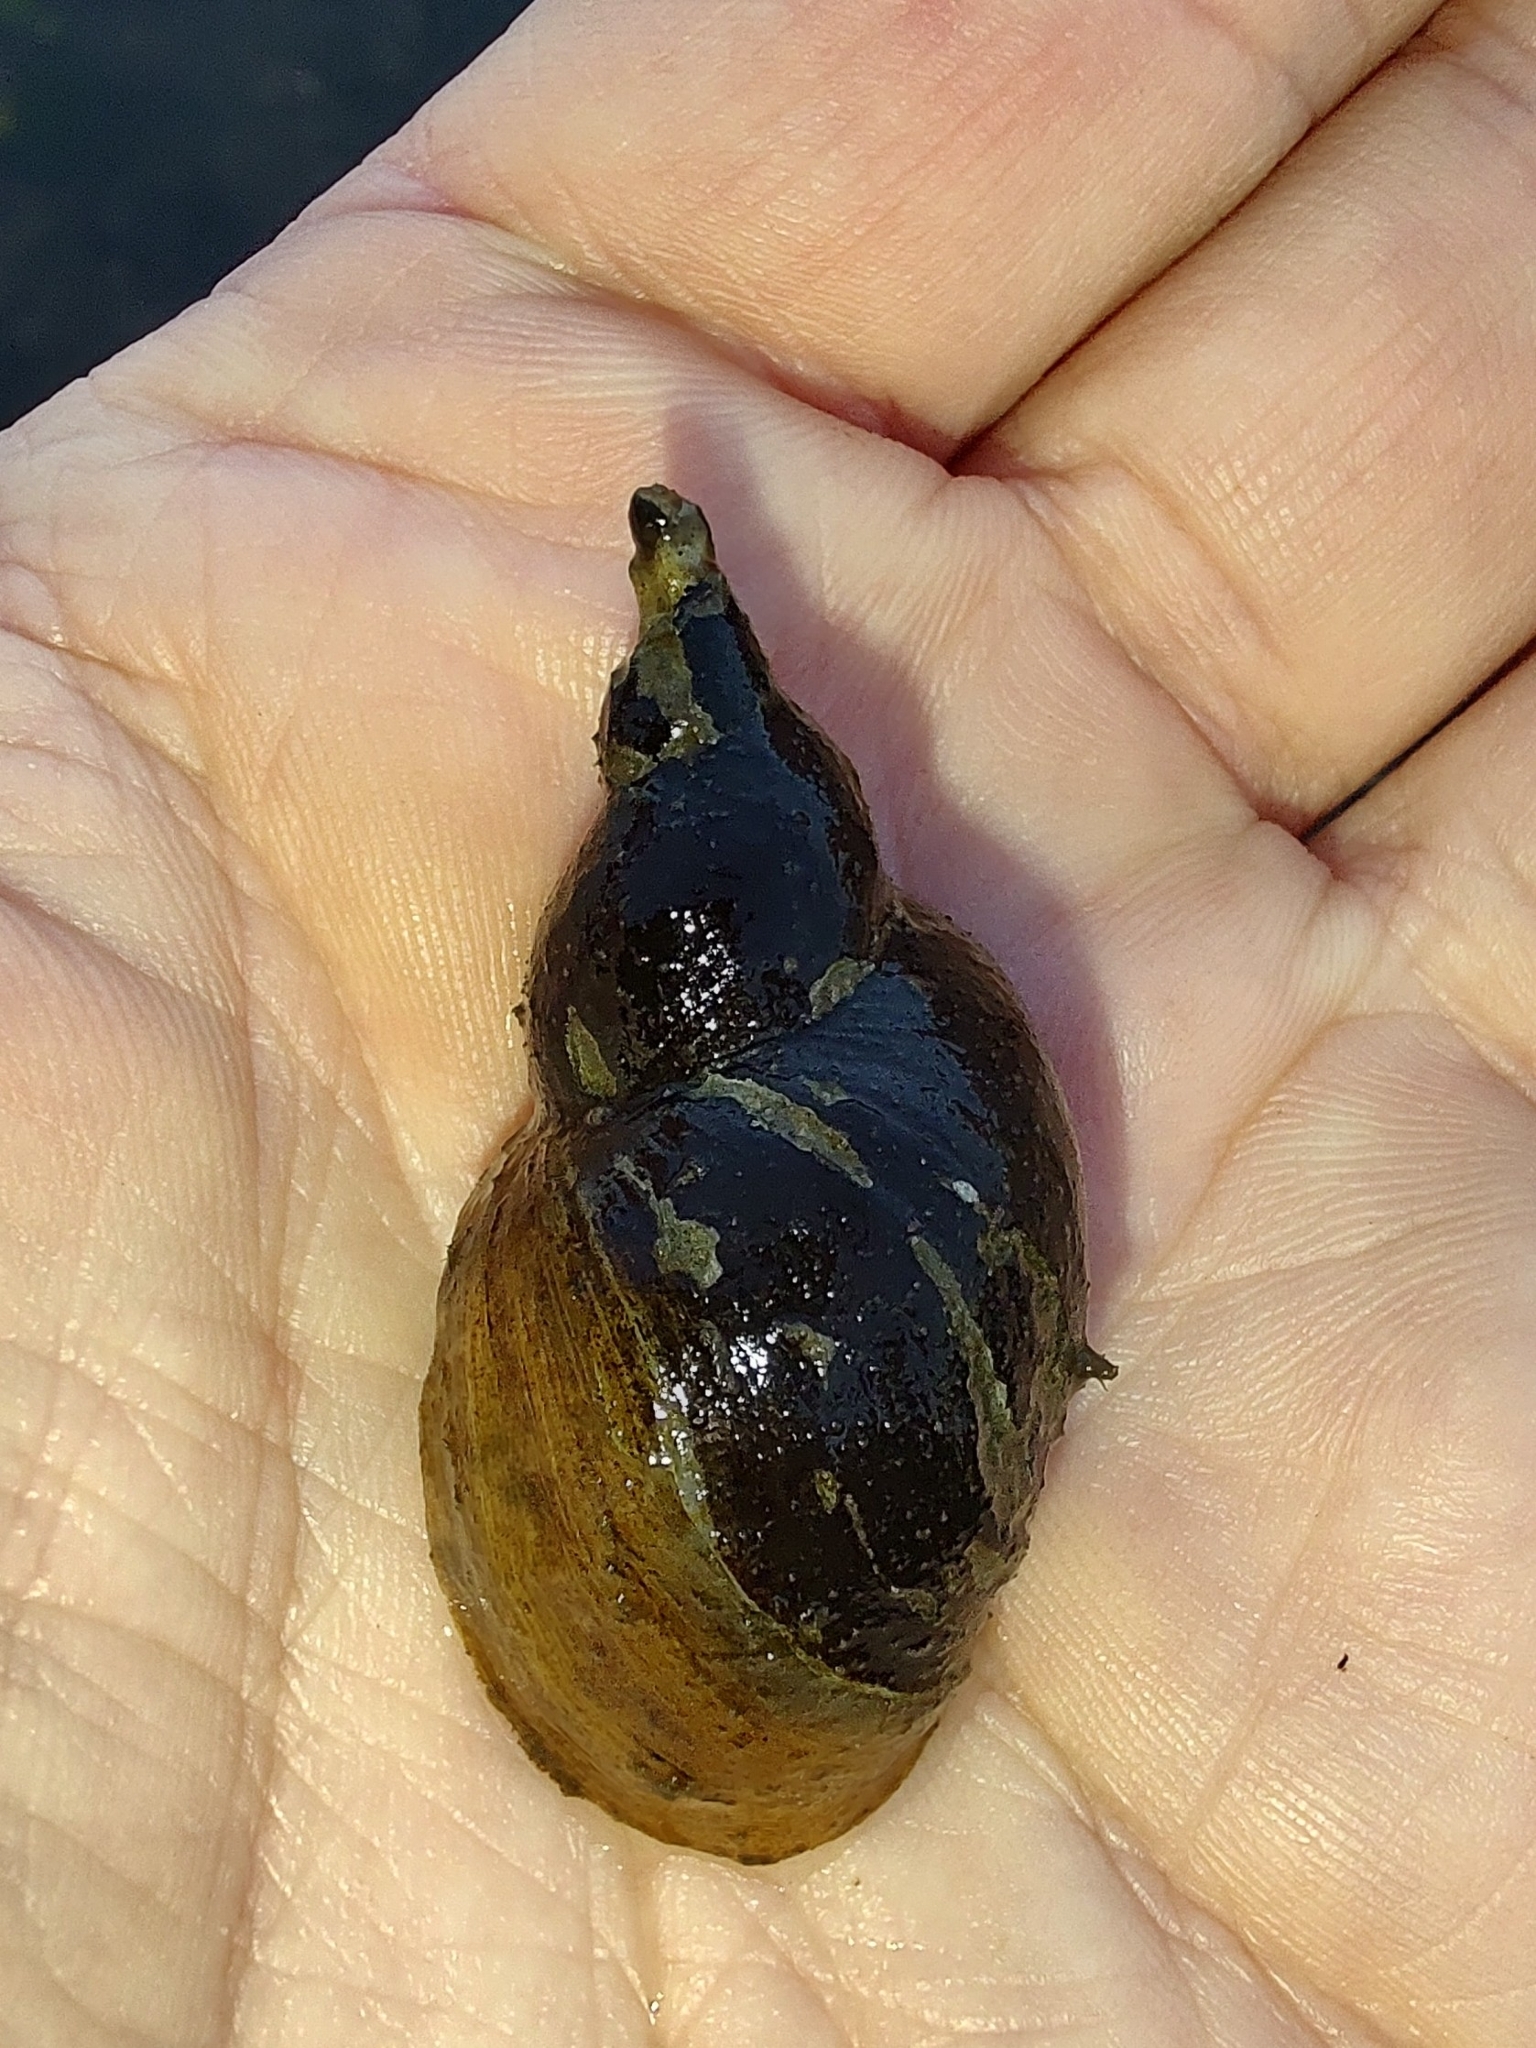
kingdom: Animalia
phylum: Mollusca
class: Gastropoda
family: Lymnaeidae
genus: Lymnaea
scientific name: Lymnaea stagnalis
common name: Great pond snail
